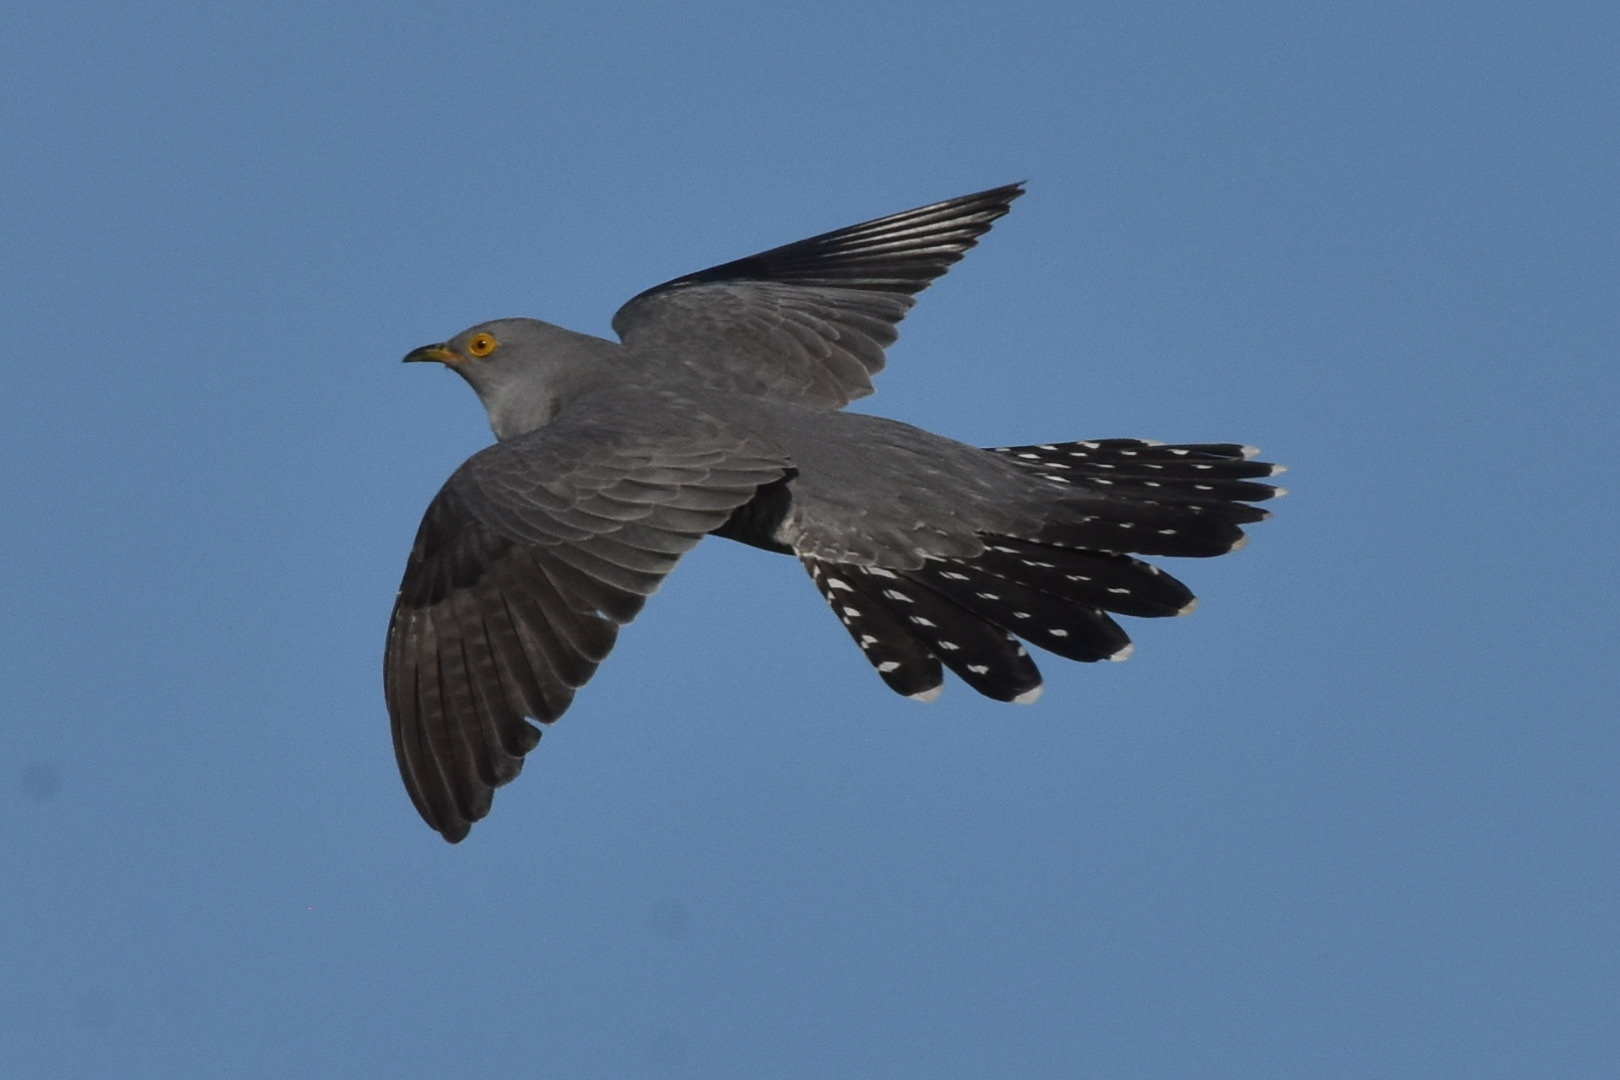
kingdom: Animalia
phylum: Chordata
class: Aves
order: Cuculiformes
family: Cuculidae
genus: Cuculus
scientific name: Cuculus canorus
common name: Common cuckoo
